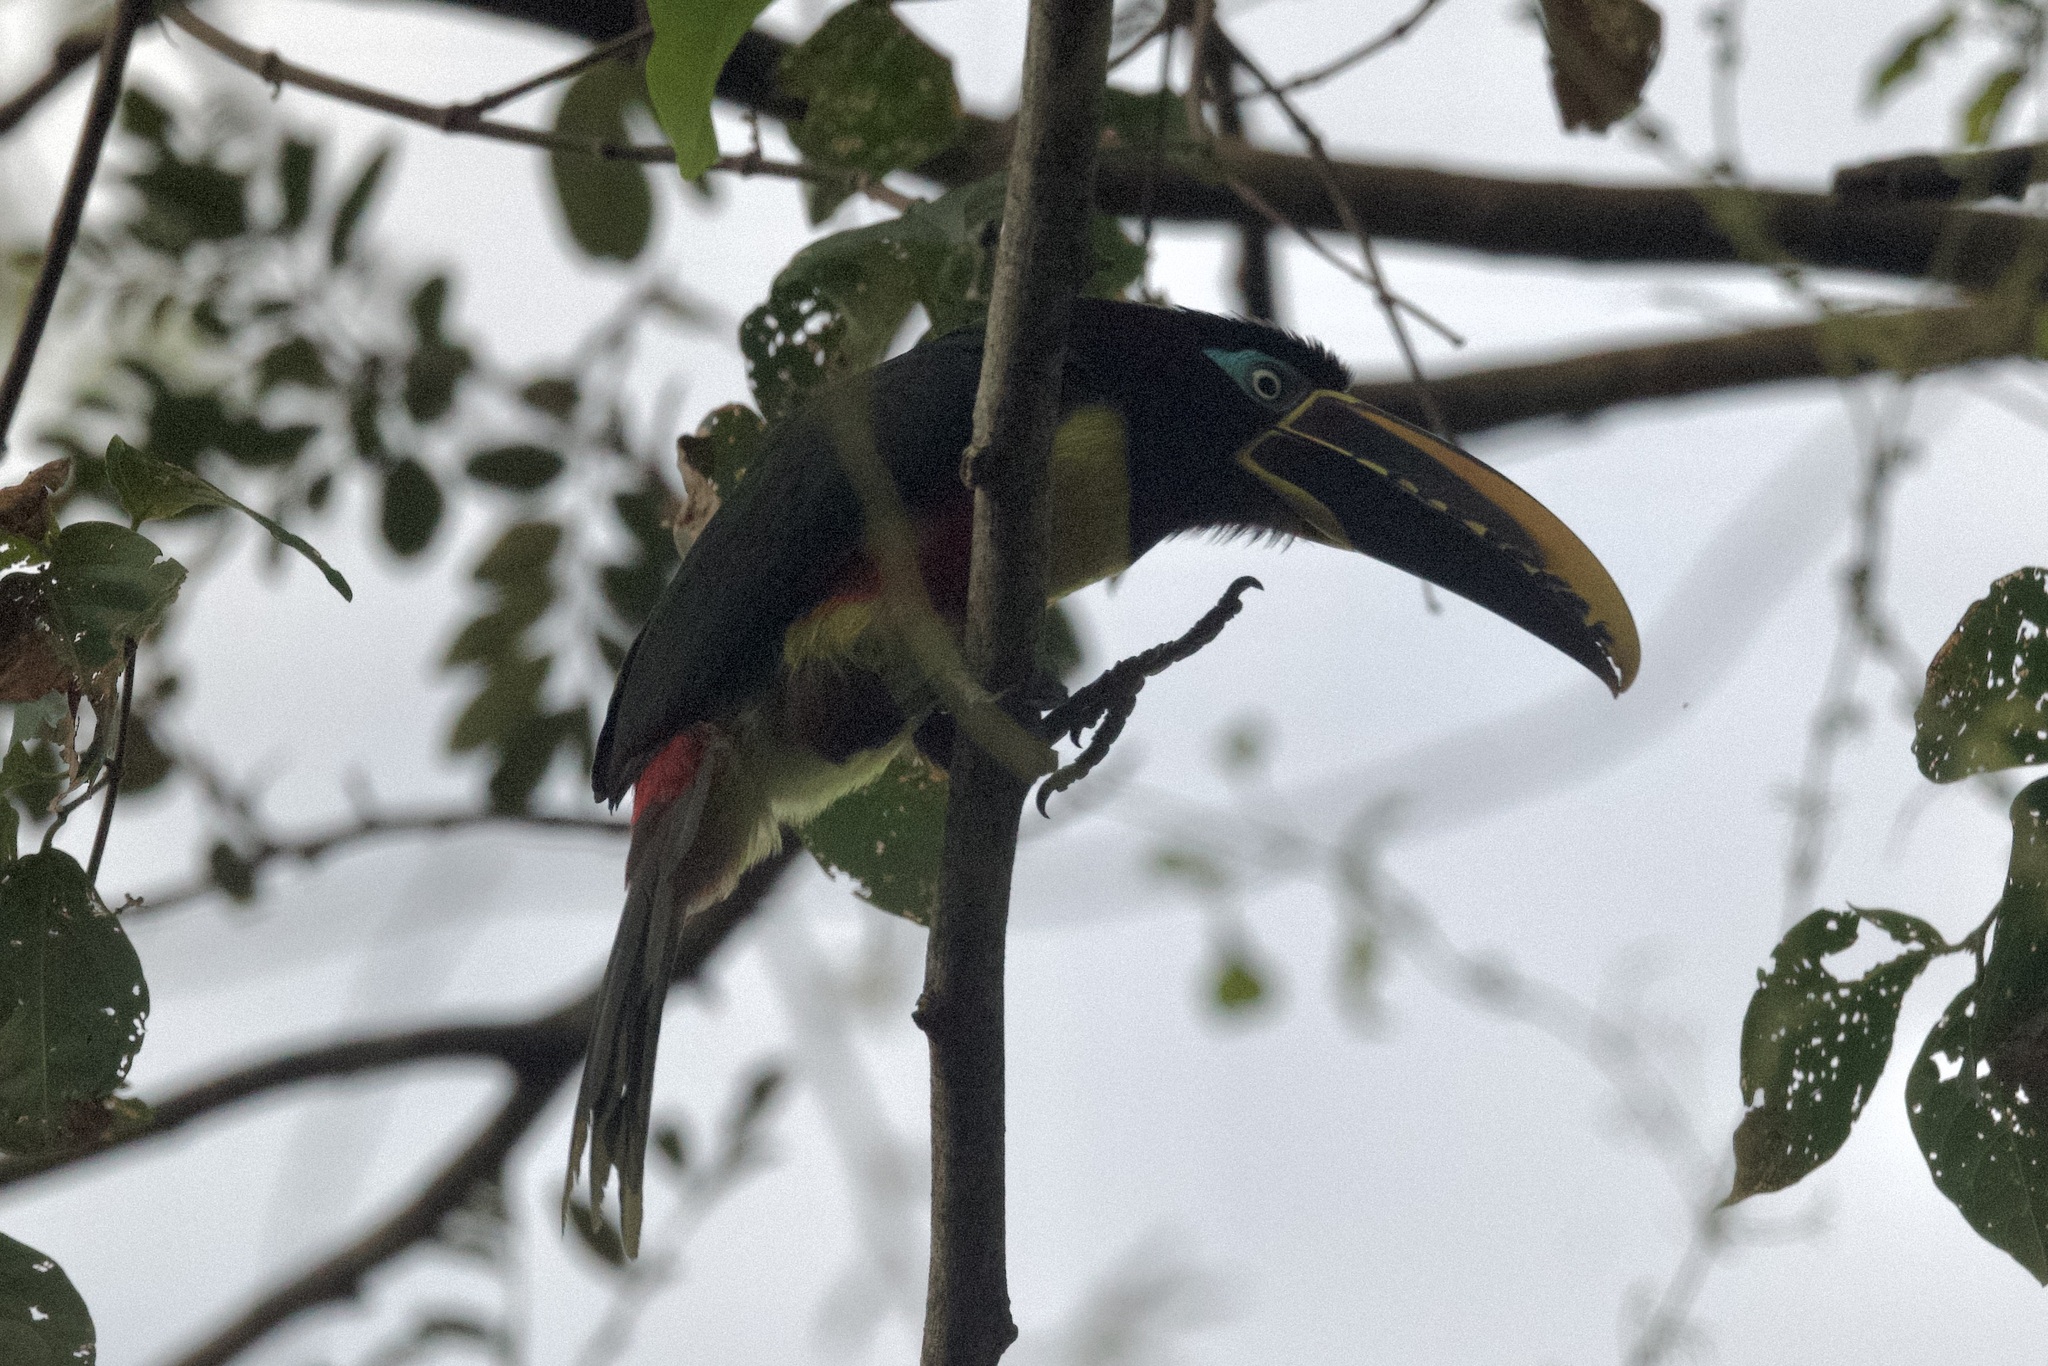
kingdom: Animalia
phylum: Chordata
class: Aves
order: Piciformes
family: Ramphastidae
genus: Pteroglossus
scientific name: Pteroglossus castanotis
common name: Chestnut-eared aracari
